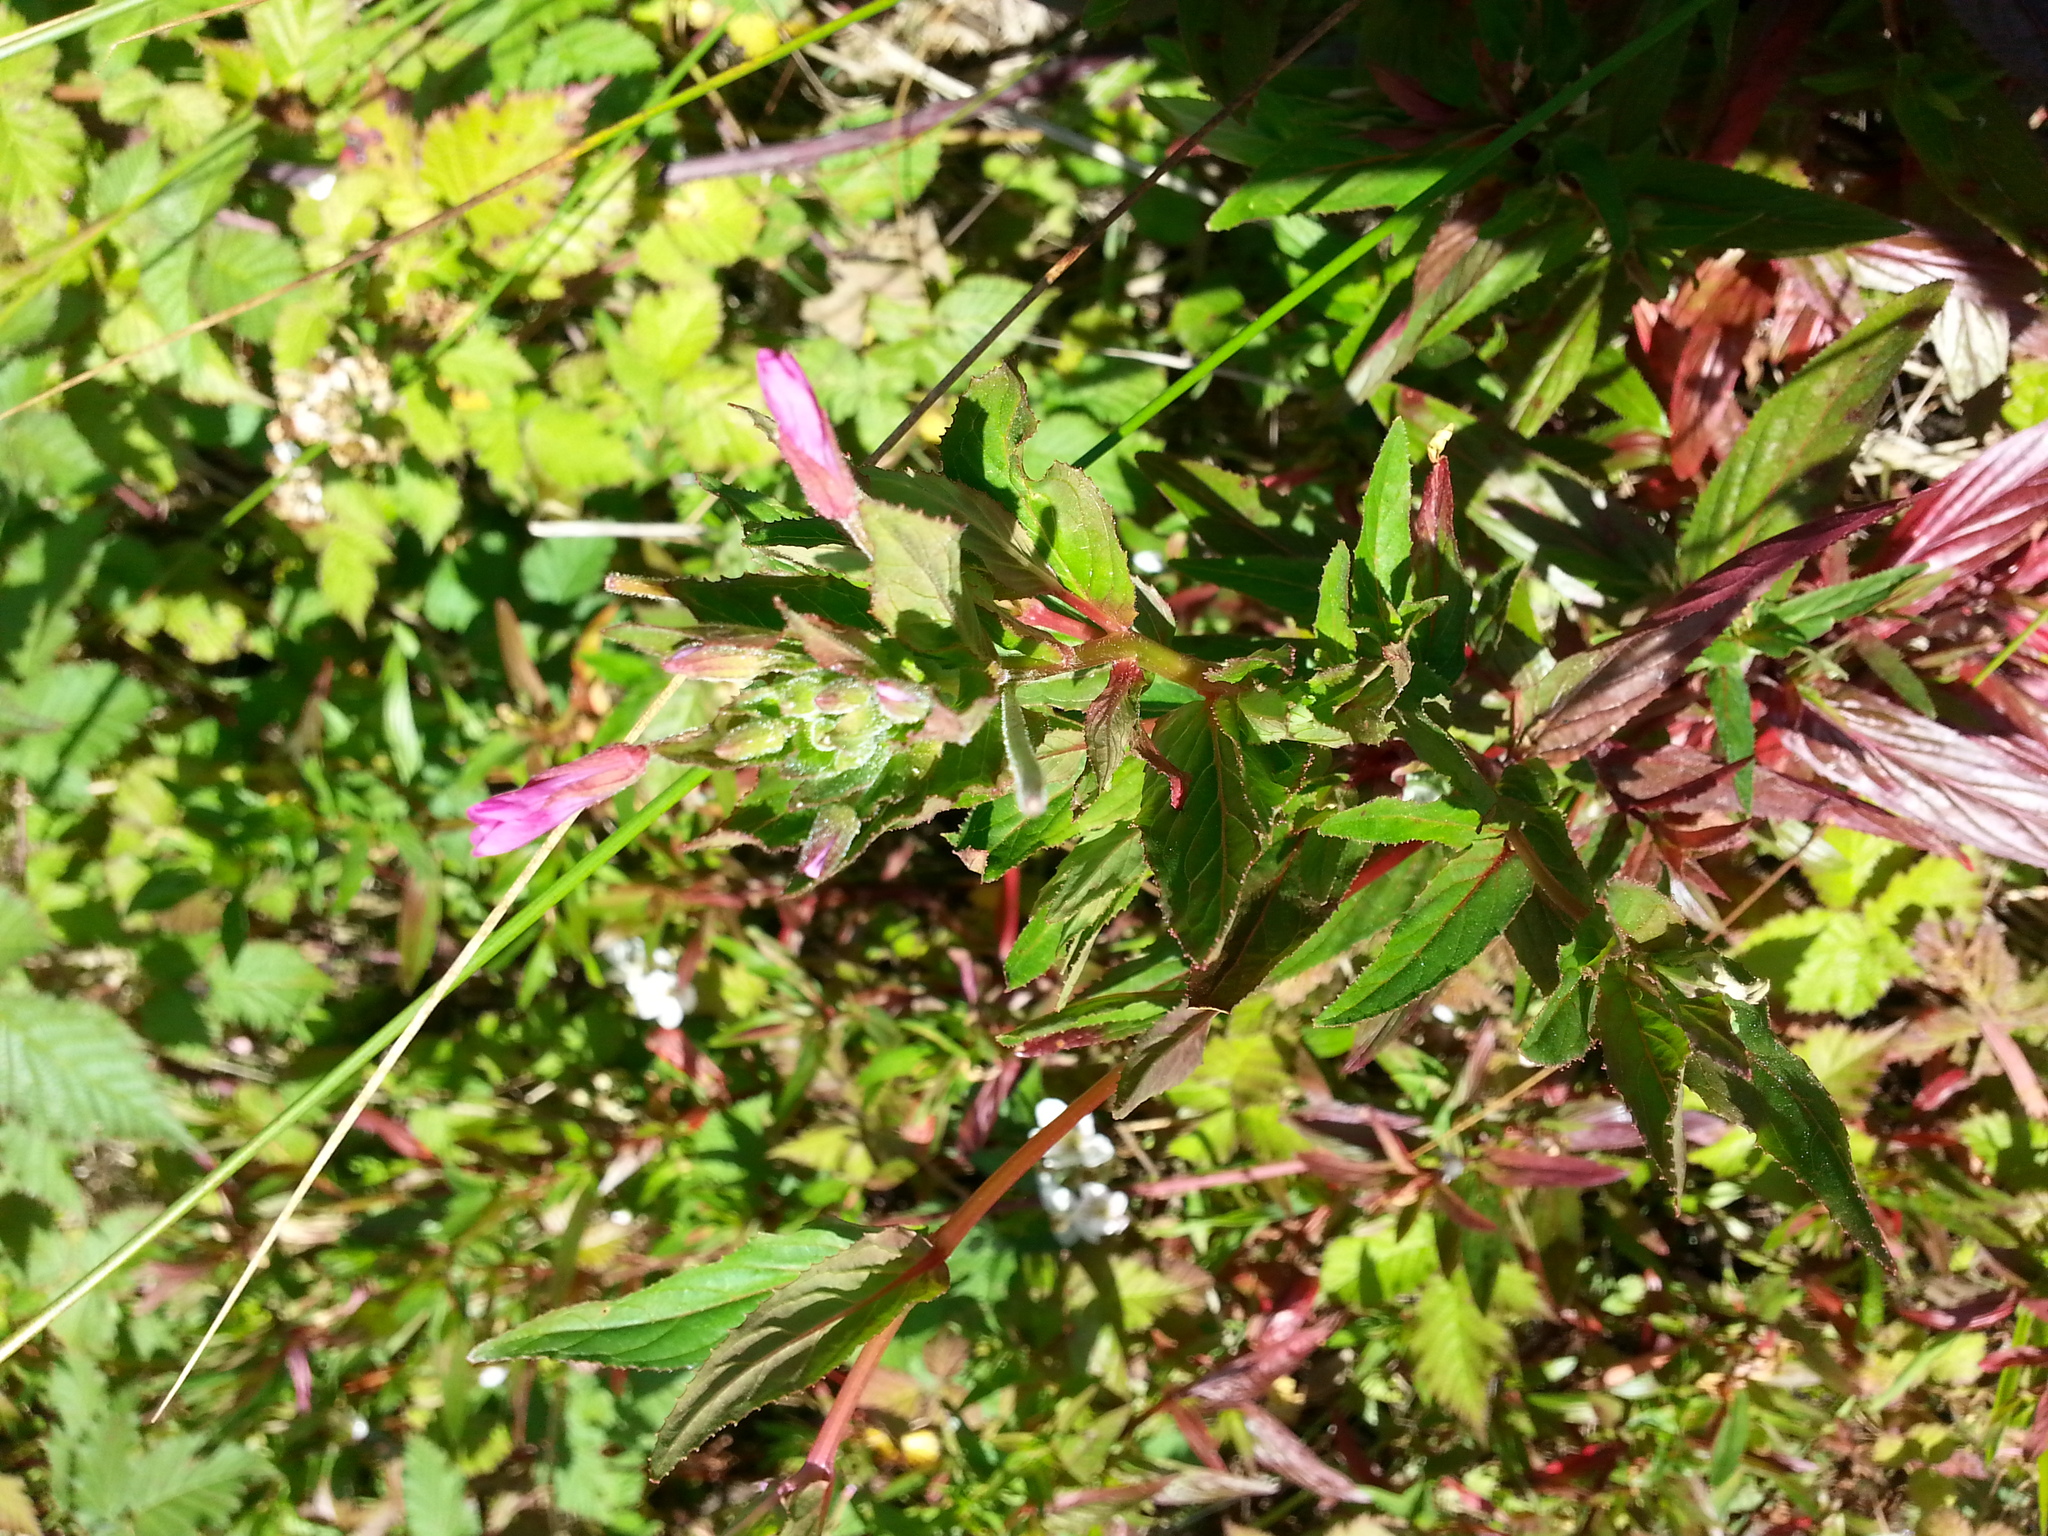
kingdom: Plantae
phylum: Tracheophyta
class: Magnoliopsida
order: Myrtales
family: Onagraceae
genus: Epilobium
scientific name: Epilobium ciliatum
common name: American willowherb
